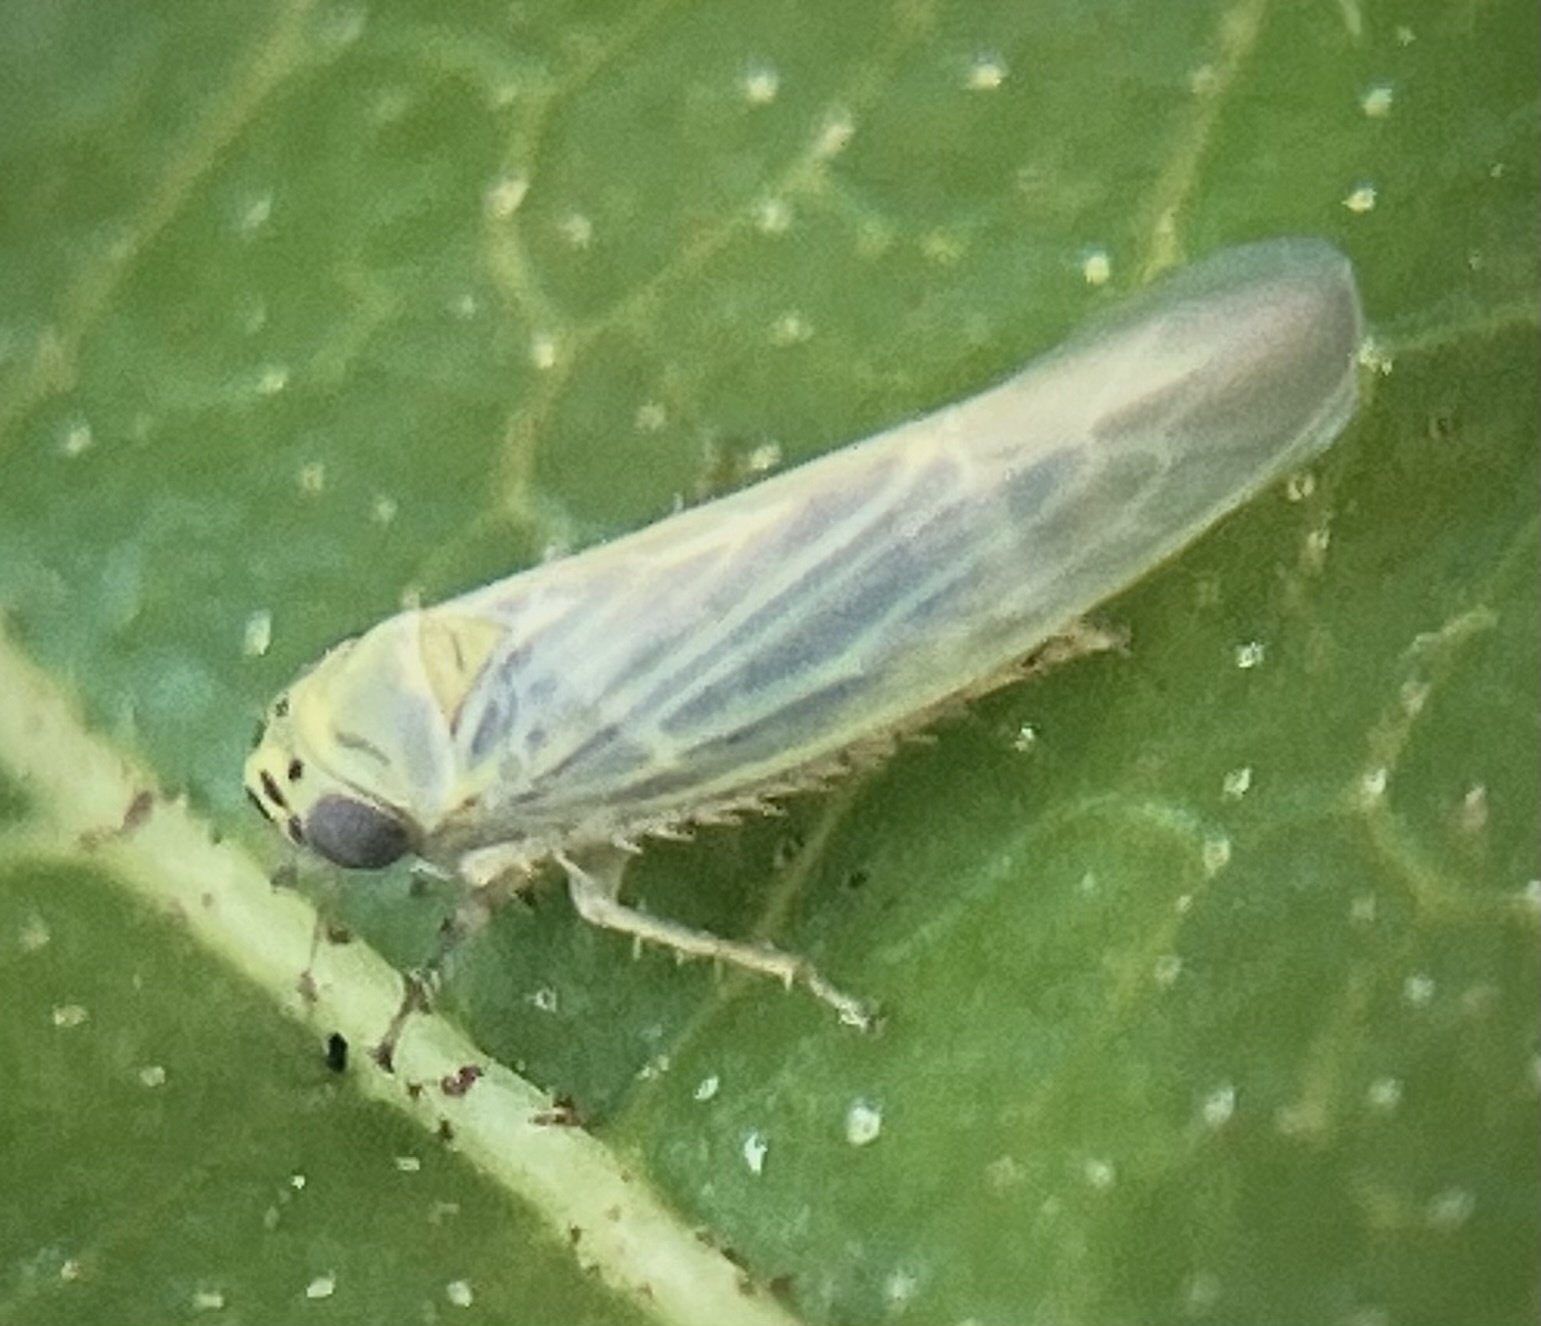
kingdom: Animalia
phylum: Arthropoda
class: Insecta
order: Hemiptera
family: Cicadellidae
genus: Macrosteles
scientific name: Macrosteles quadrilineatus
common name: Aster leafhopper
